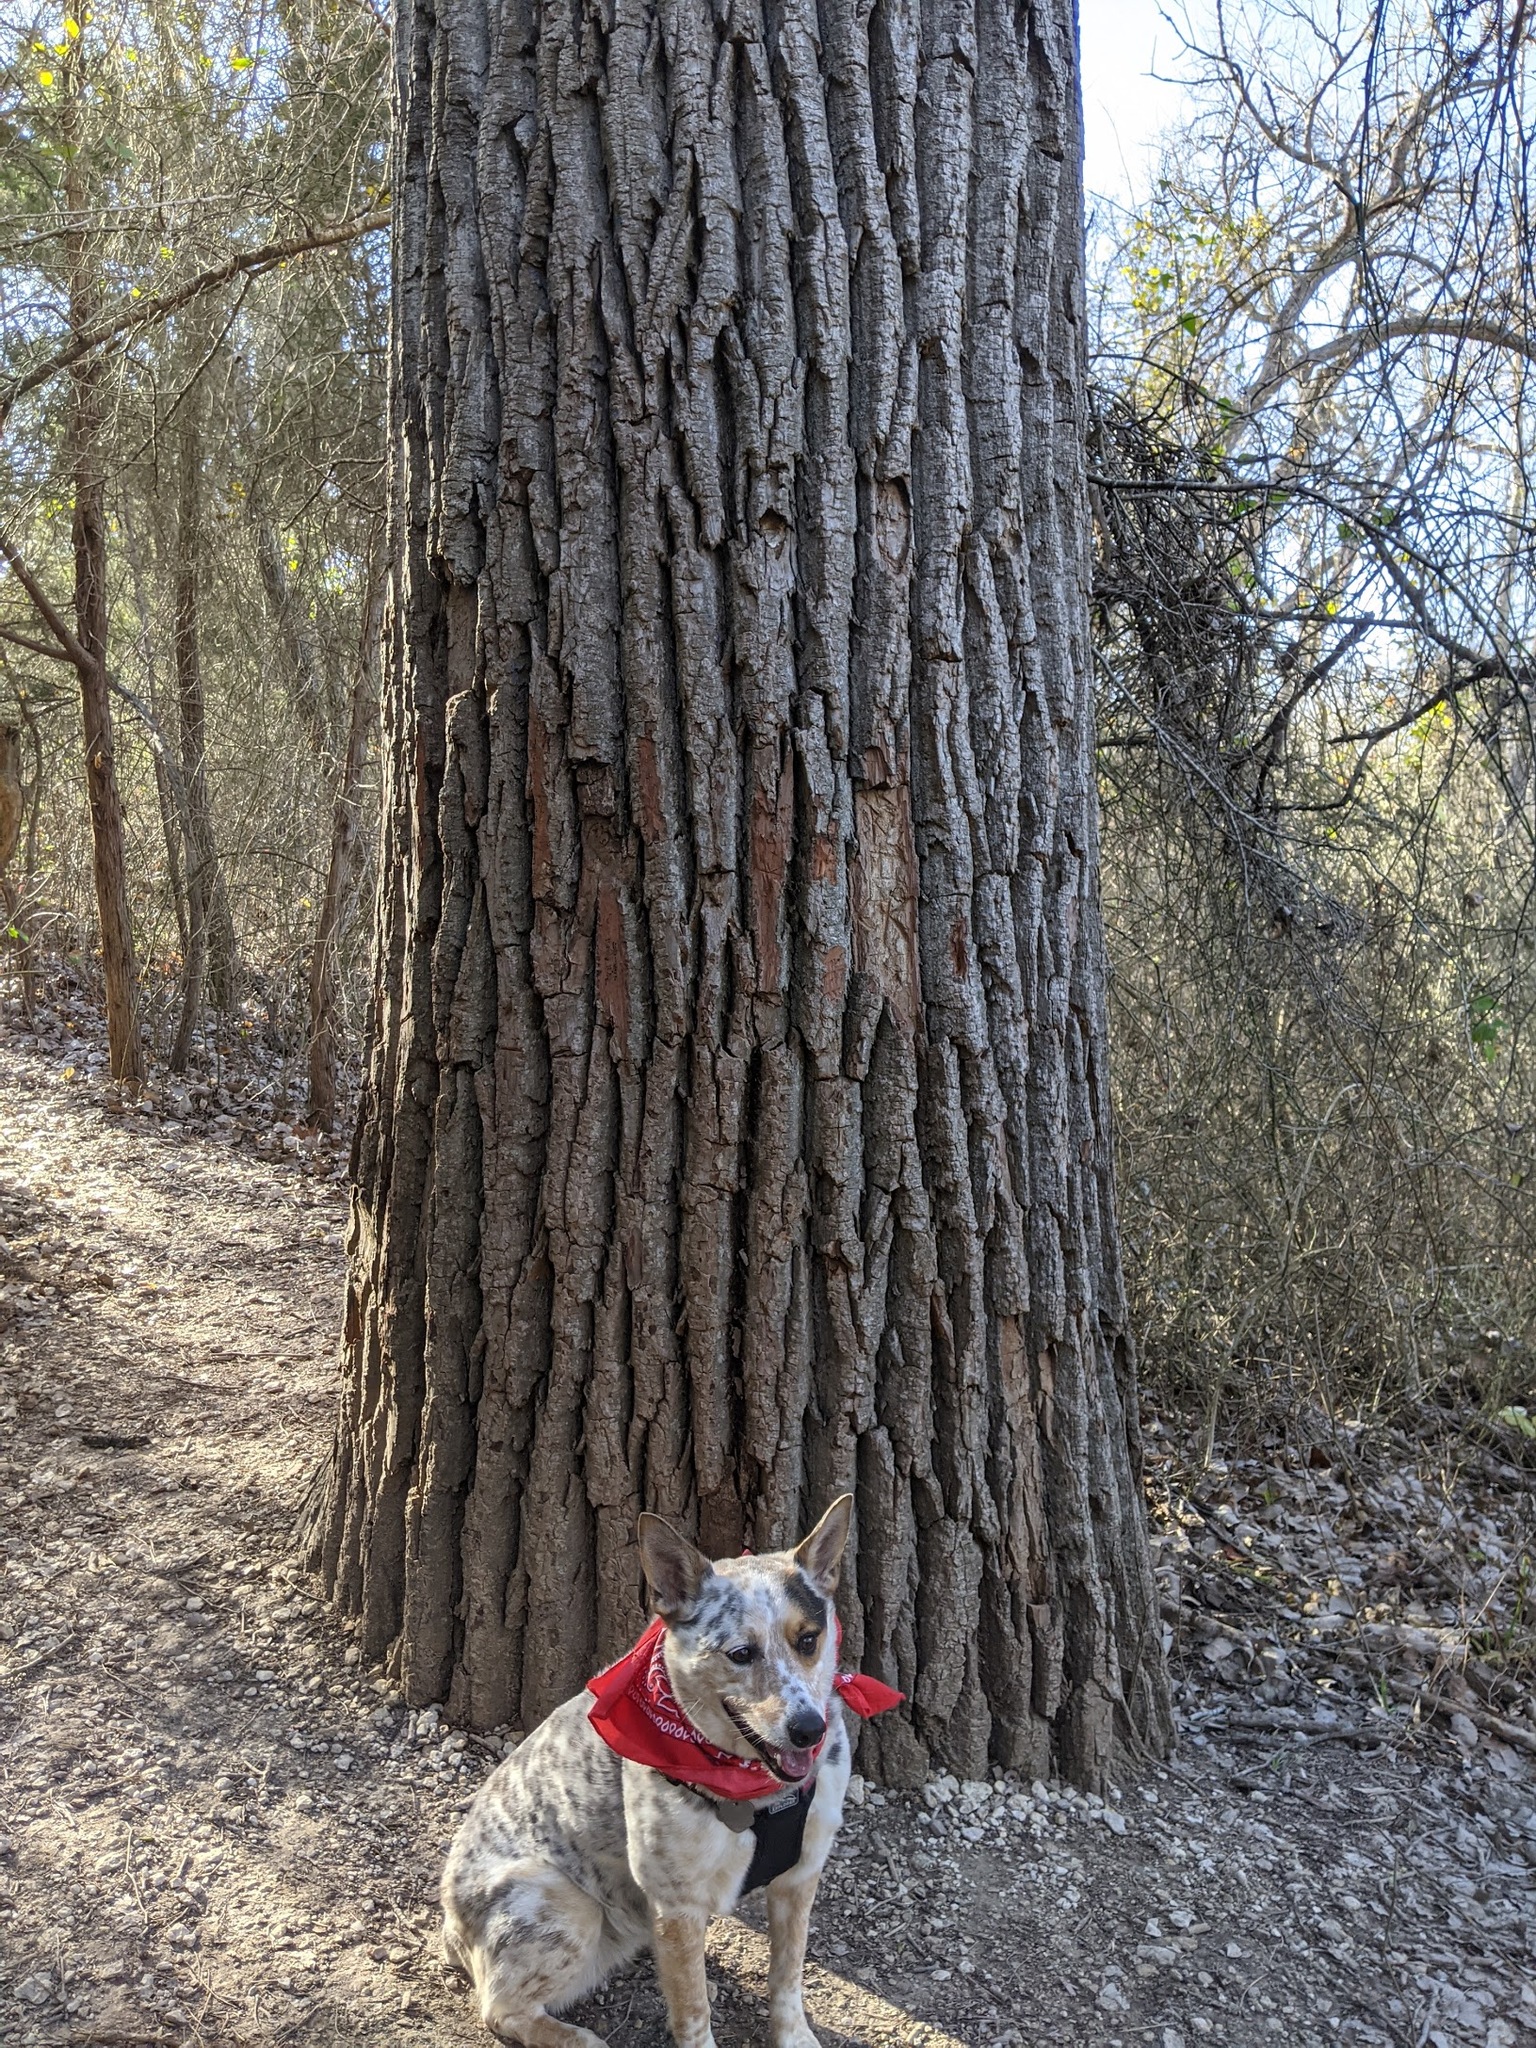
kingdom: Plantae
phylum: Tracheophyta
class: Magnoliopsida
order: Malpighiales
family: Salicaceae
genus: Populus
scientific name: Populus deltoides
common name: Eastern cottonwood
